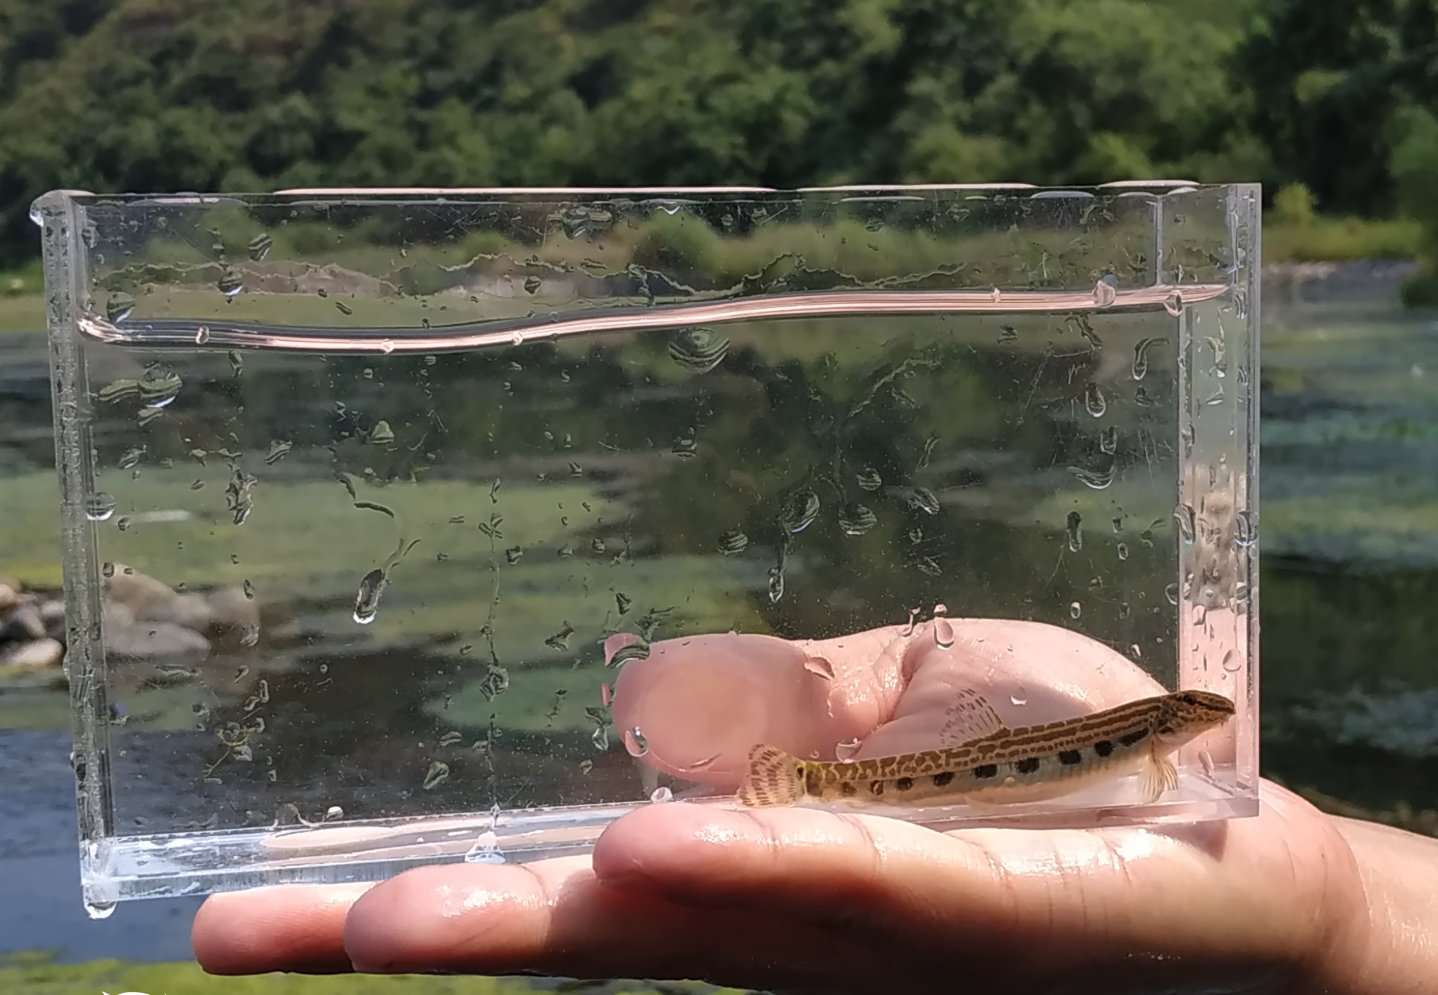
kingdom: Animalia
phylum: Chordata
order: Cypriniformes
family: Cobitidae
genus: Cobitis
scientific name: Cobitis sinensis
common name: Siberian spiny loach
